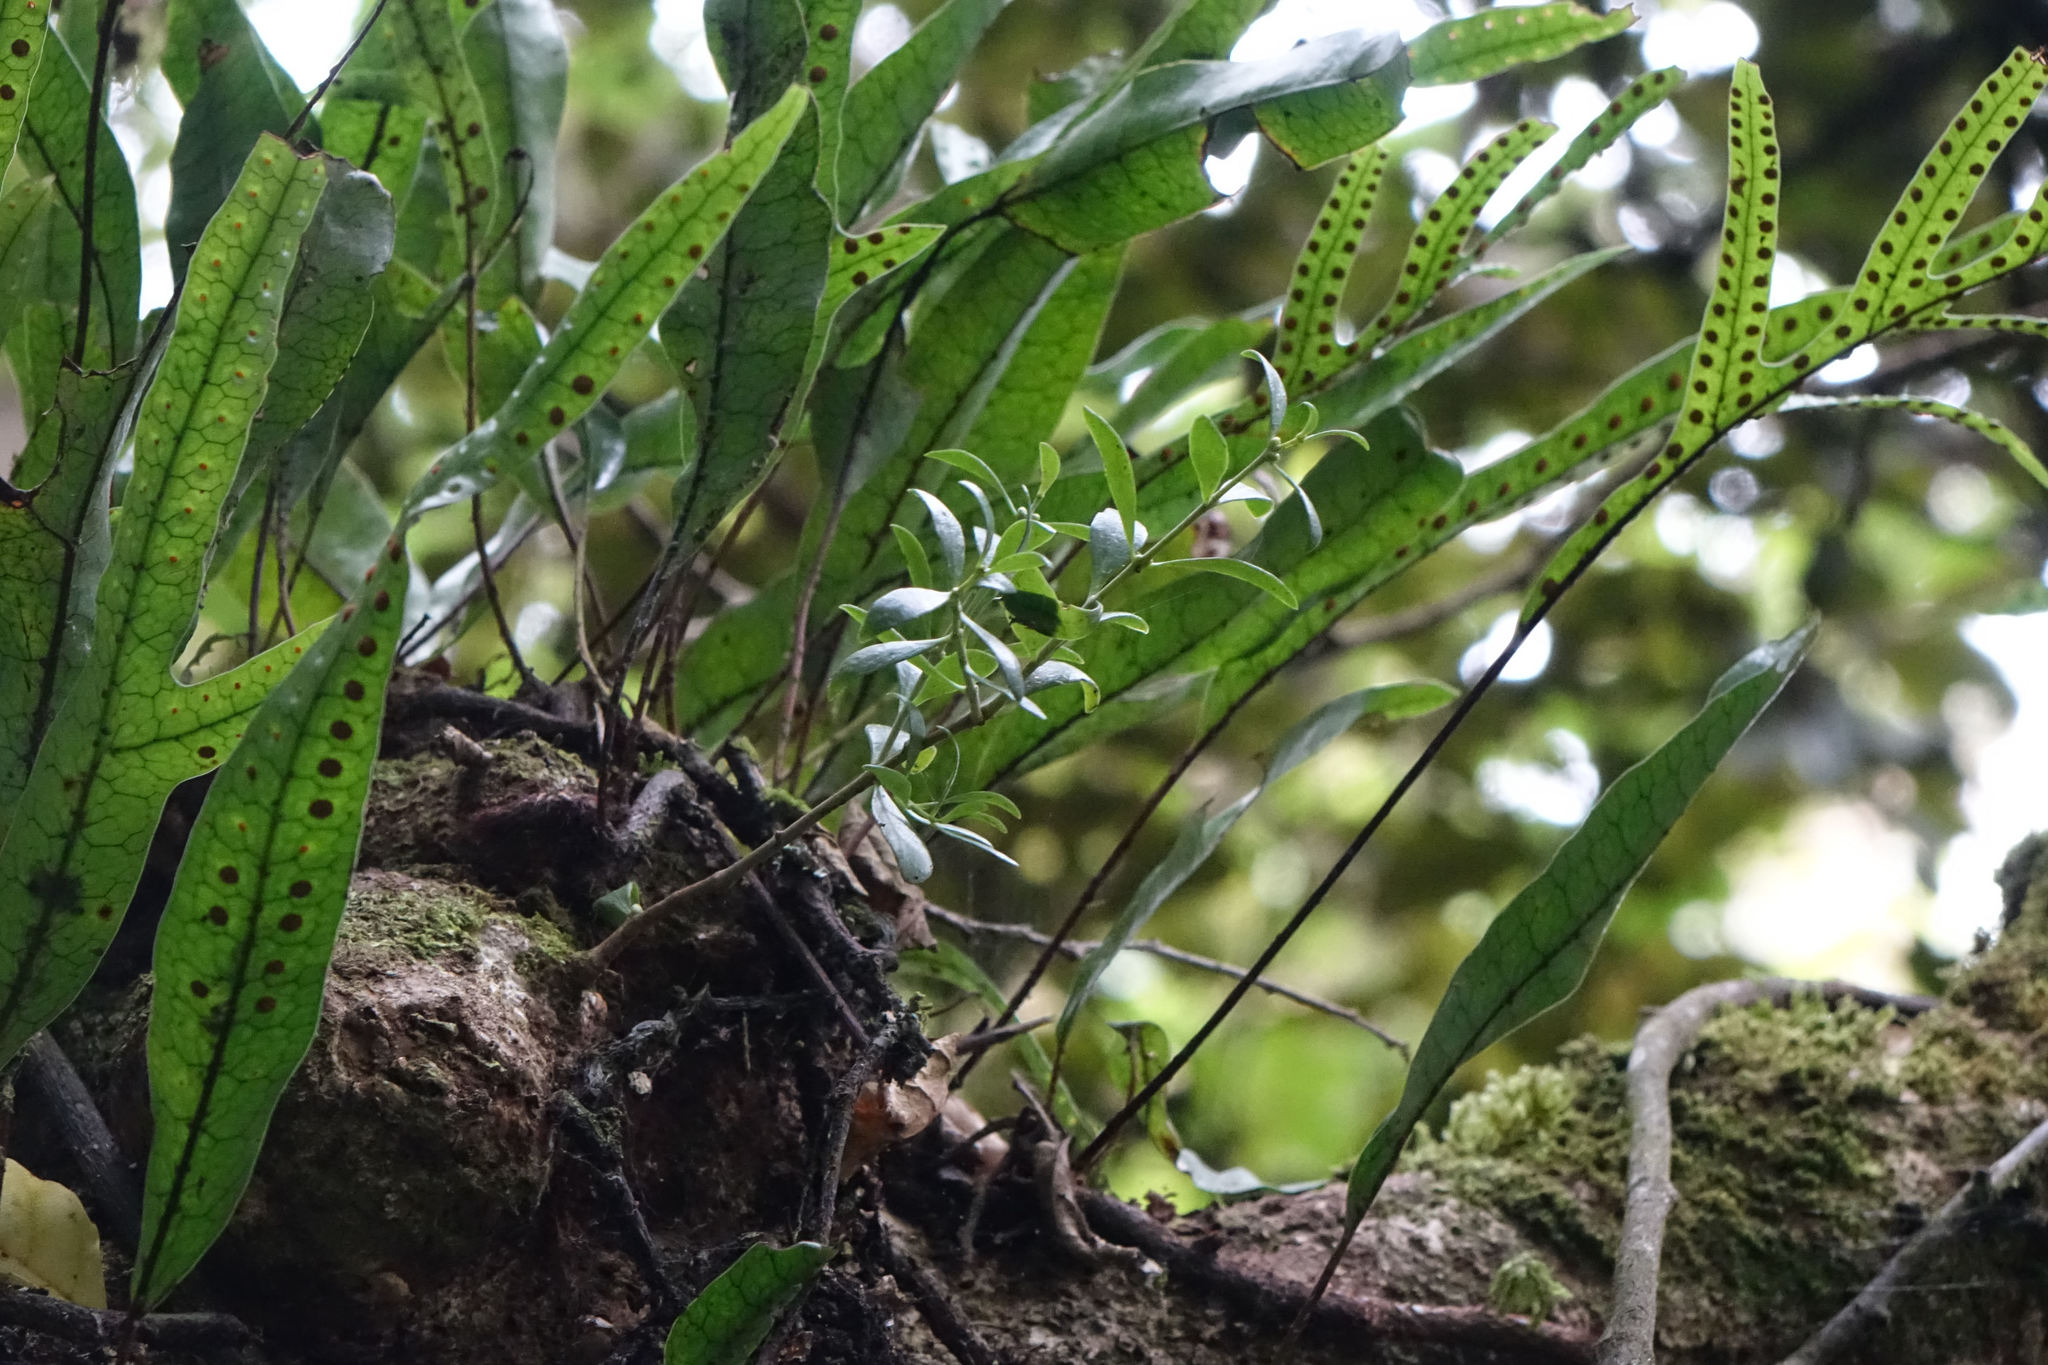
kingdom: Plantae
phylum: Tracheophyta
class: Magnoliopsida
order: Santalales
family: Loranthaceae
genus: Tupeia
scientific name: Tupeia antarctica
